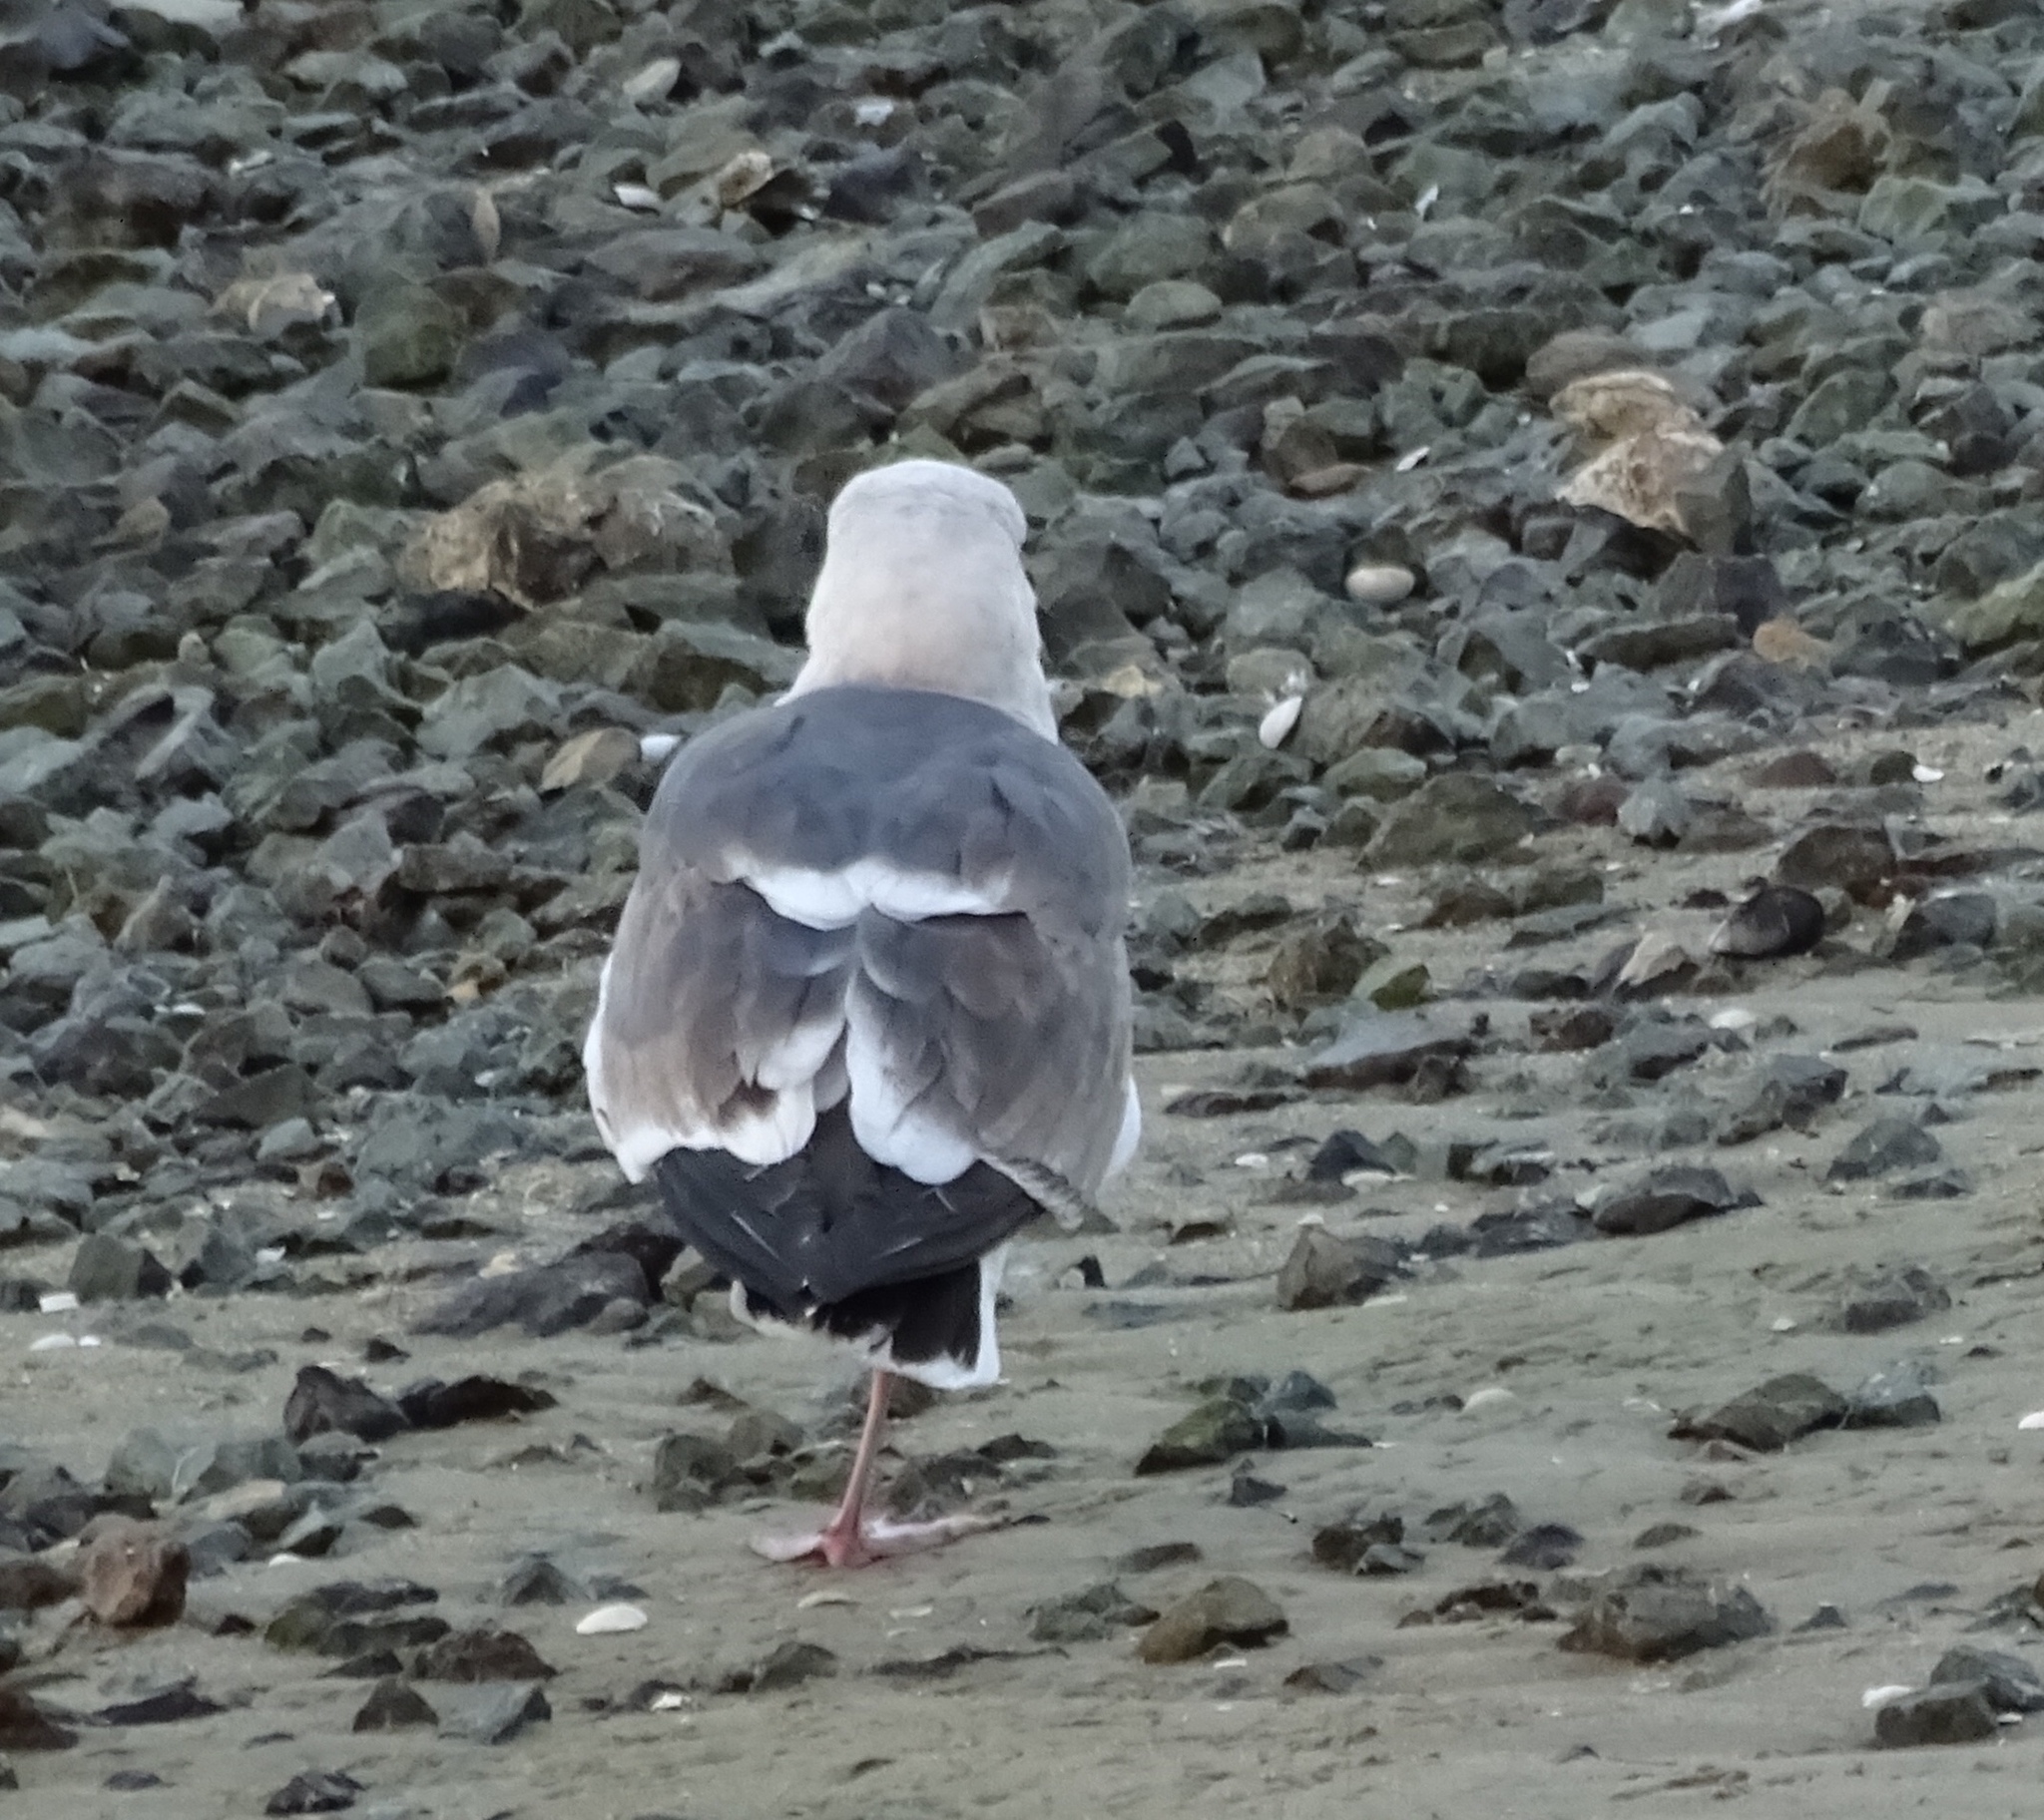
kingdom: Animalia
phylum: Chordata
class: Aves
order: Charadriiformes
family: Laridae
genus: Larus
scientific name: Larus occidentalis
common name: Western gull
